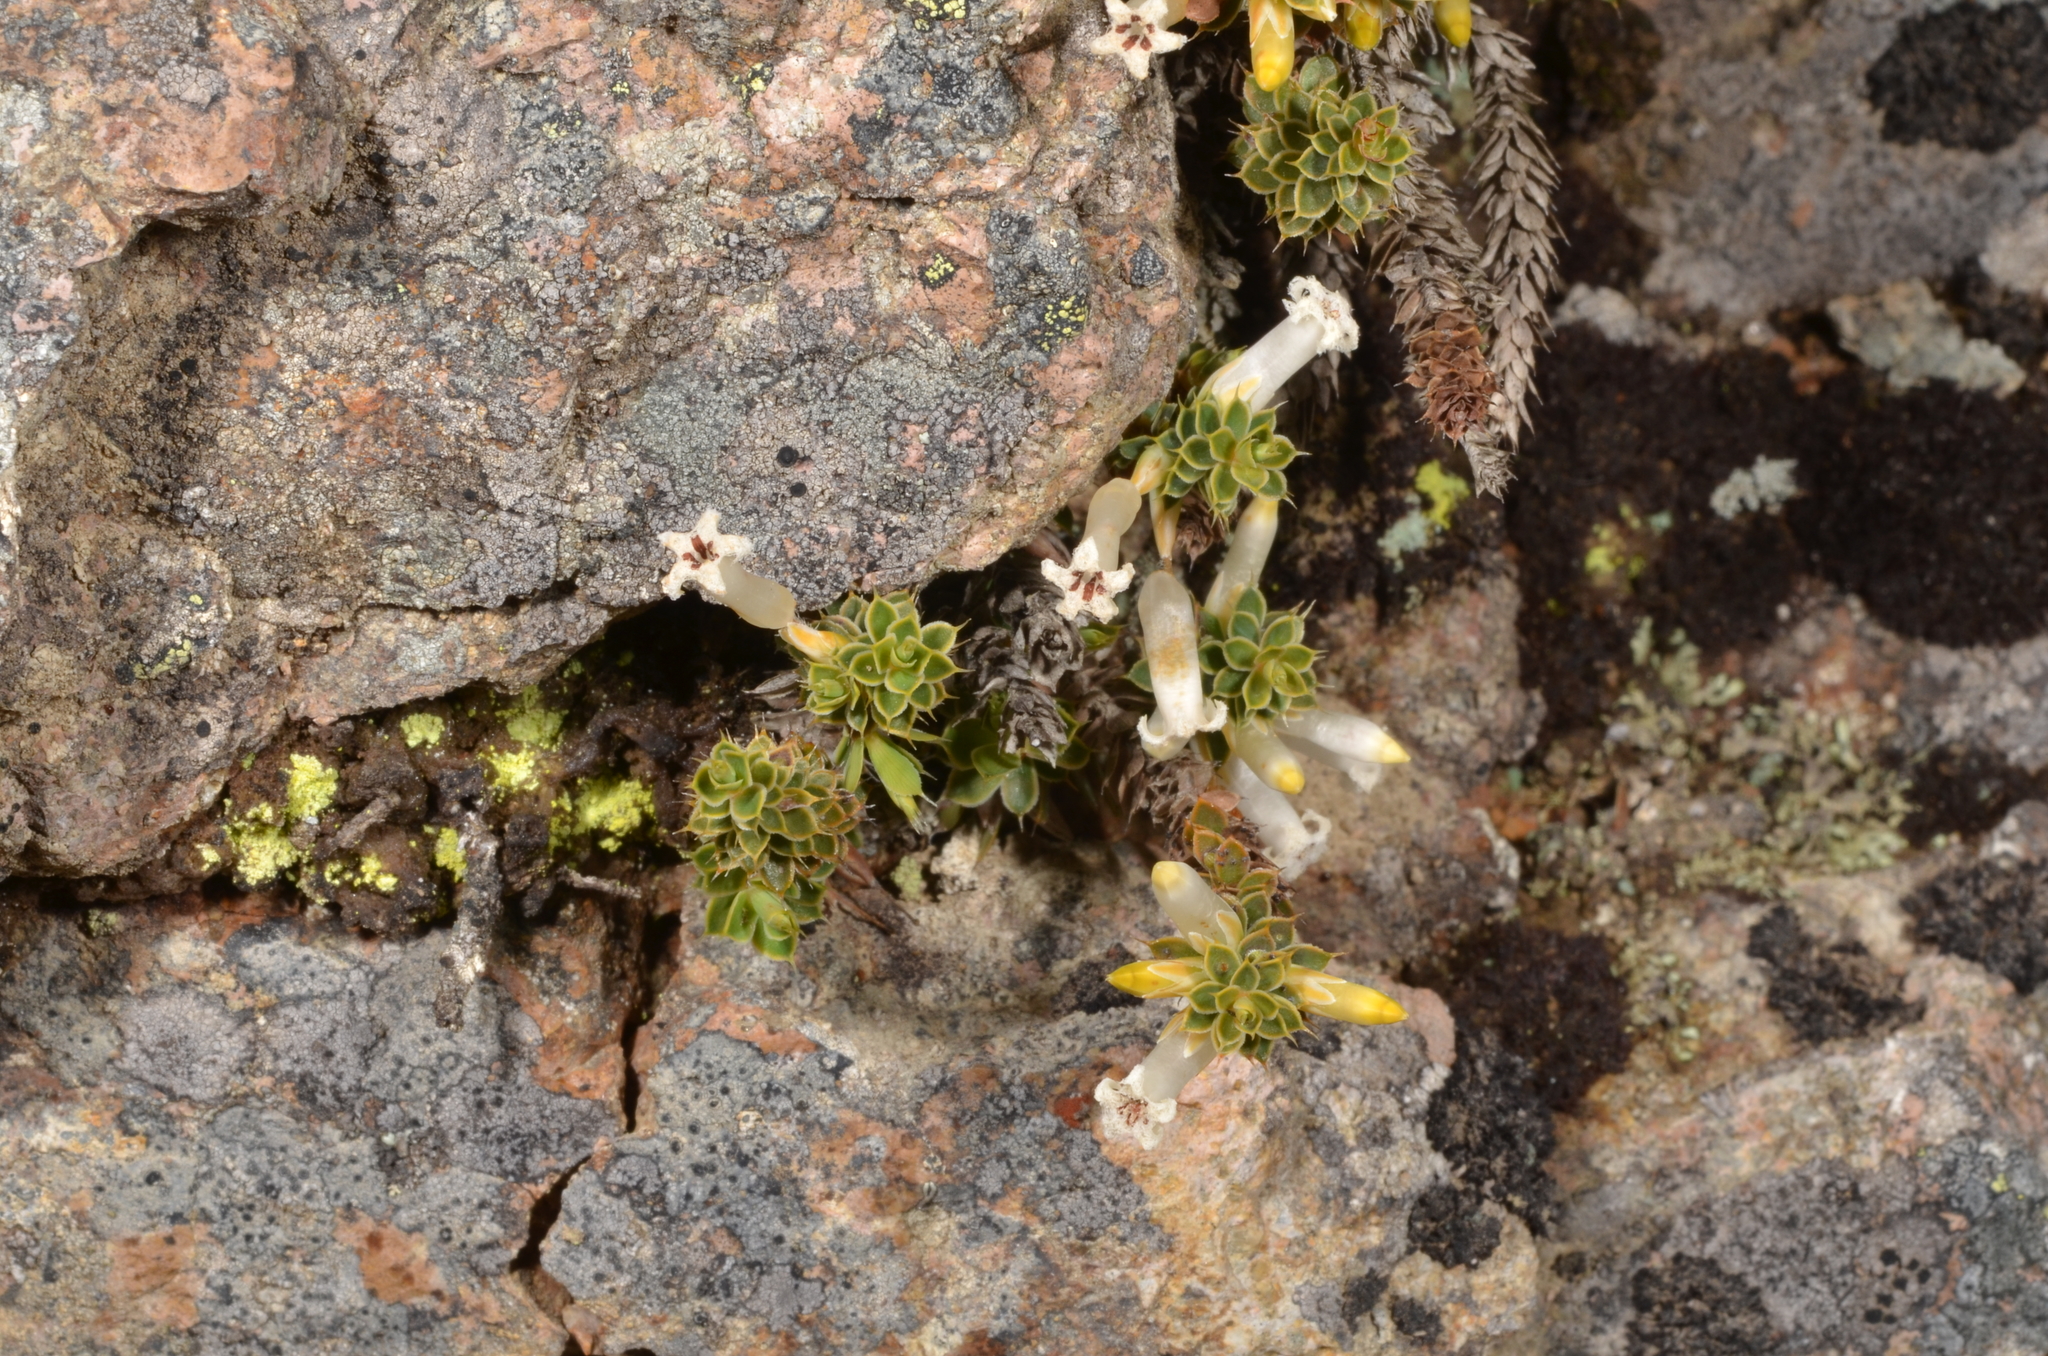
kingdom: Plantae
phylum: Tracheophyta
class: Magnoliopsida
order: Ericales
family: Ericaceae
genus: Styphelia
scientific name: Styphelia nesophila
